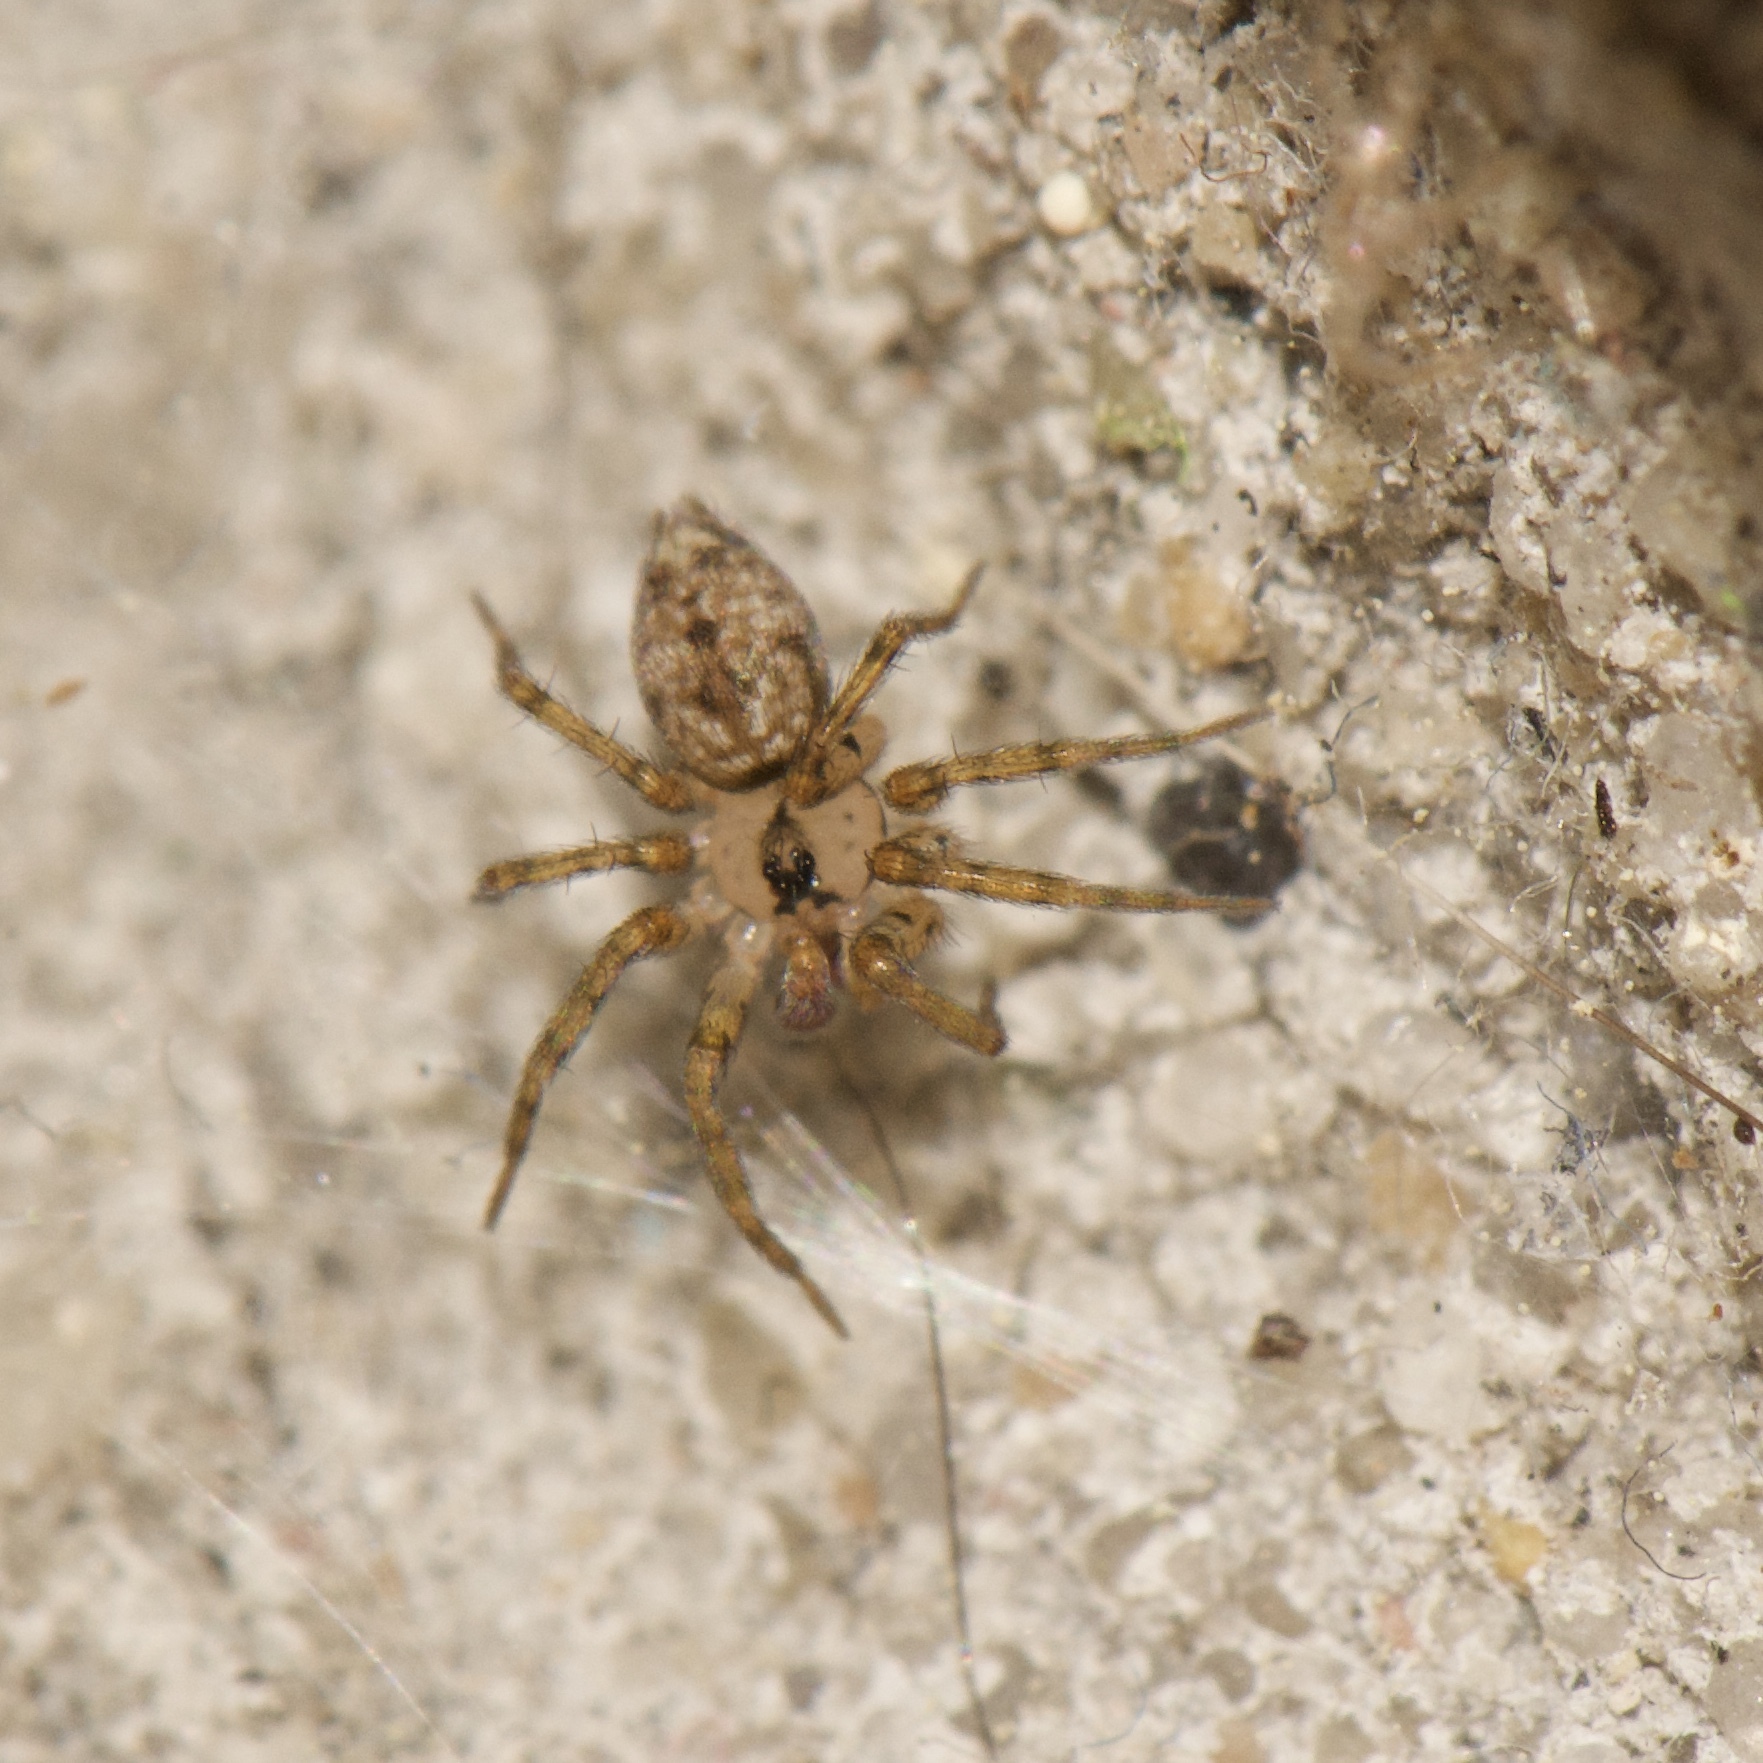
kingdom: Animalia
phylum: Arthropoda
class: Arachnida
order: Araneae
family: Oecobiidae
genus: Oecobius
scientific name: Oecobius navus
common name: Flatmesh weaver
